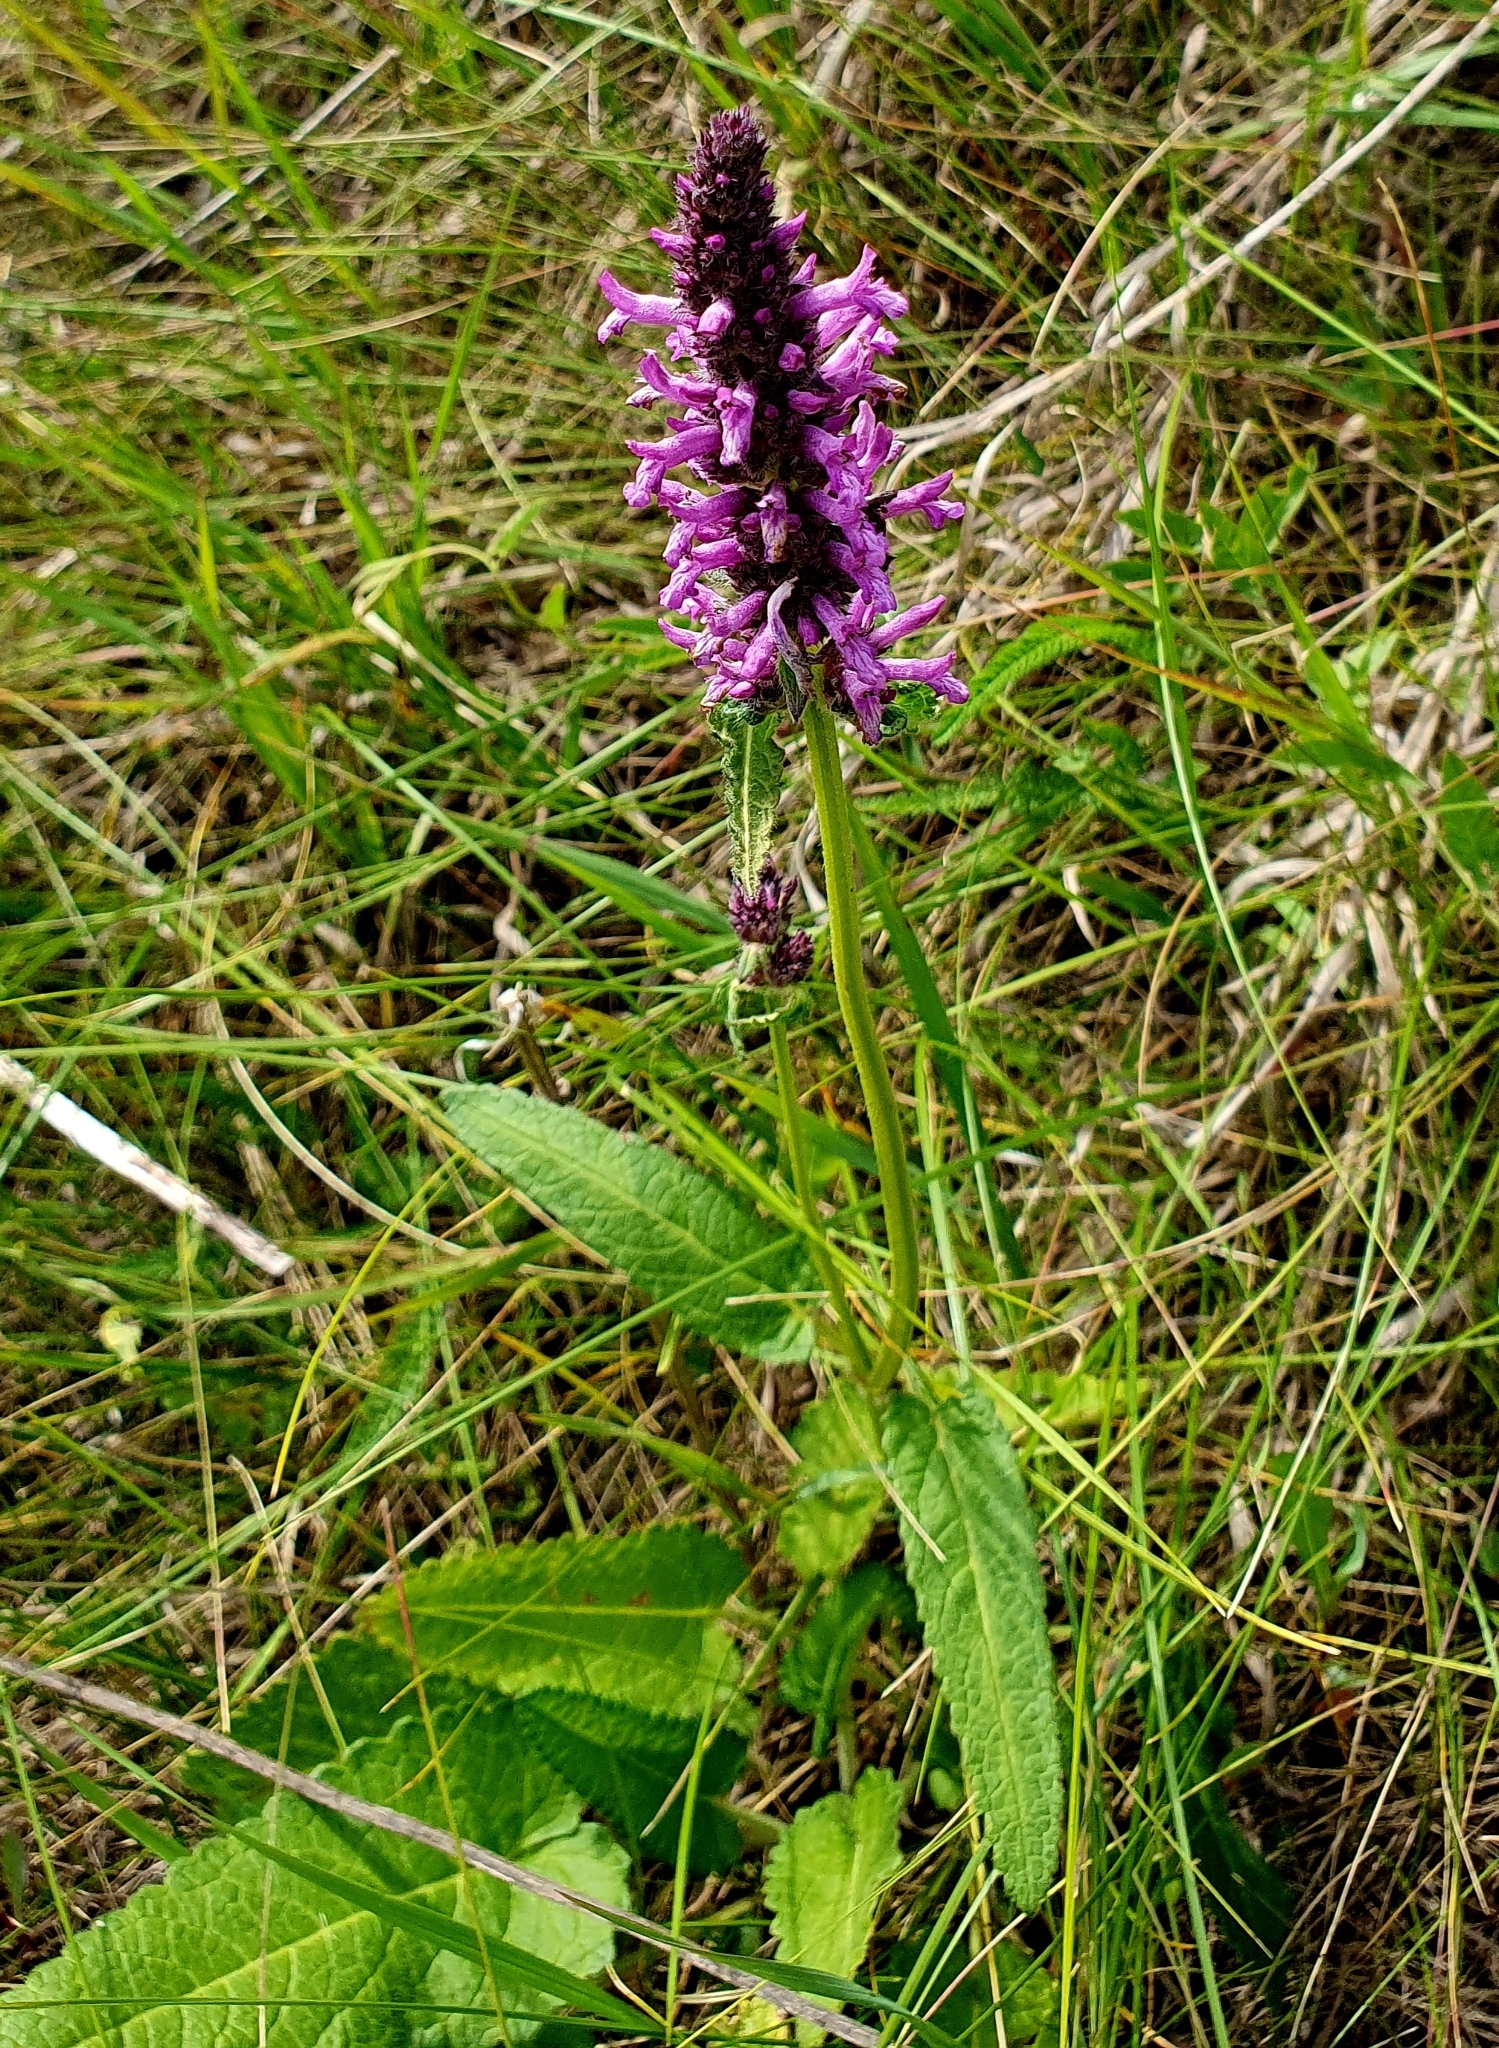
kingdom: Plantae
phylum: Tracheophyta
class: Magnoliopsida
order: Lamiales
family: Lamiaceae
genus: Betonica
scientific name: Betonica officinalis
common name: Bishop's-wort
